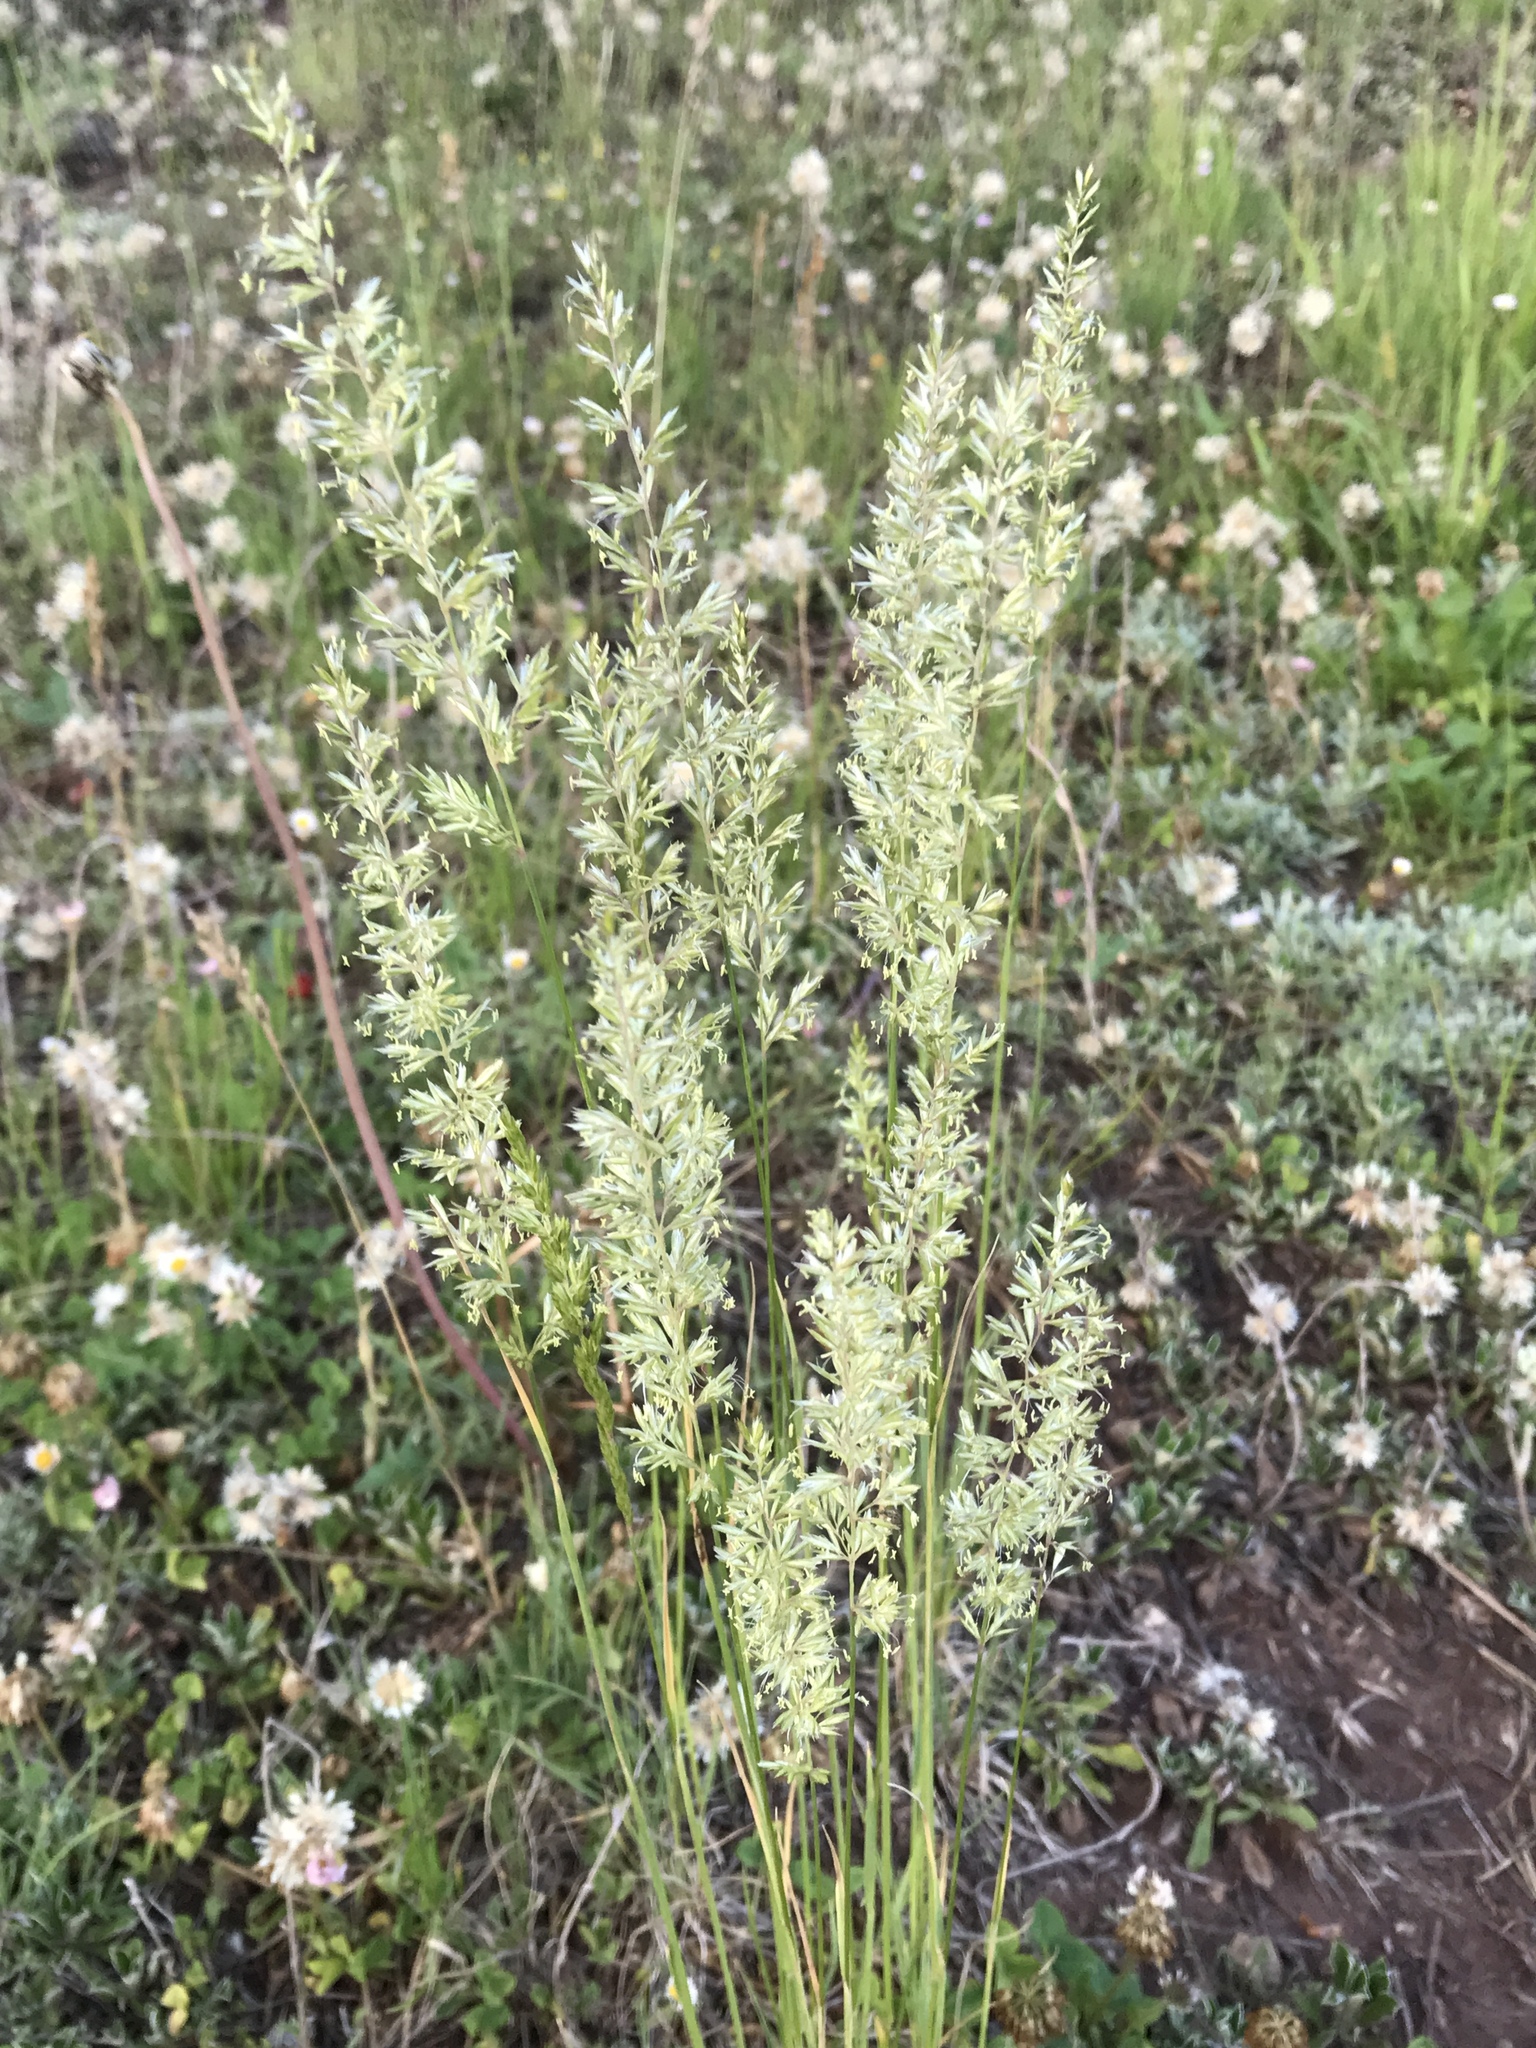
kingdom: Plantae
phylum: Tracheophyta
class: Liliopsida
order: Poales
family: Poaceae
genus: Koeleria
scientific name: Koeleria macrantha
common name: Crested hair-grass
